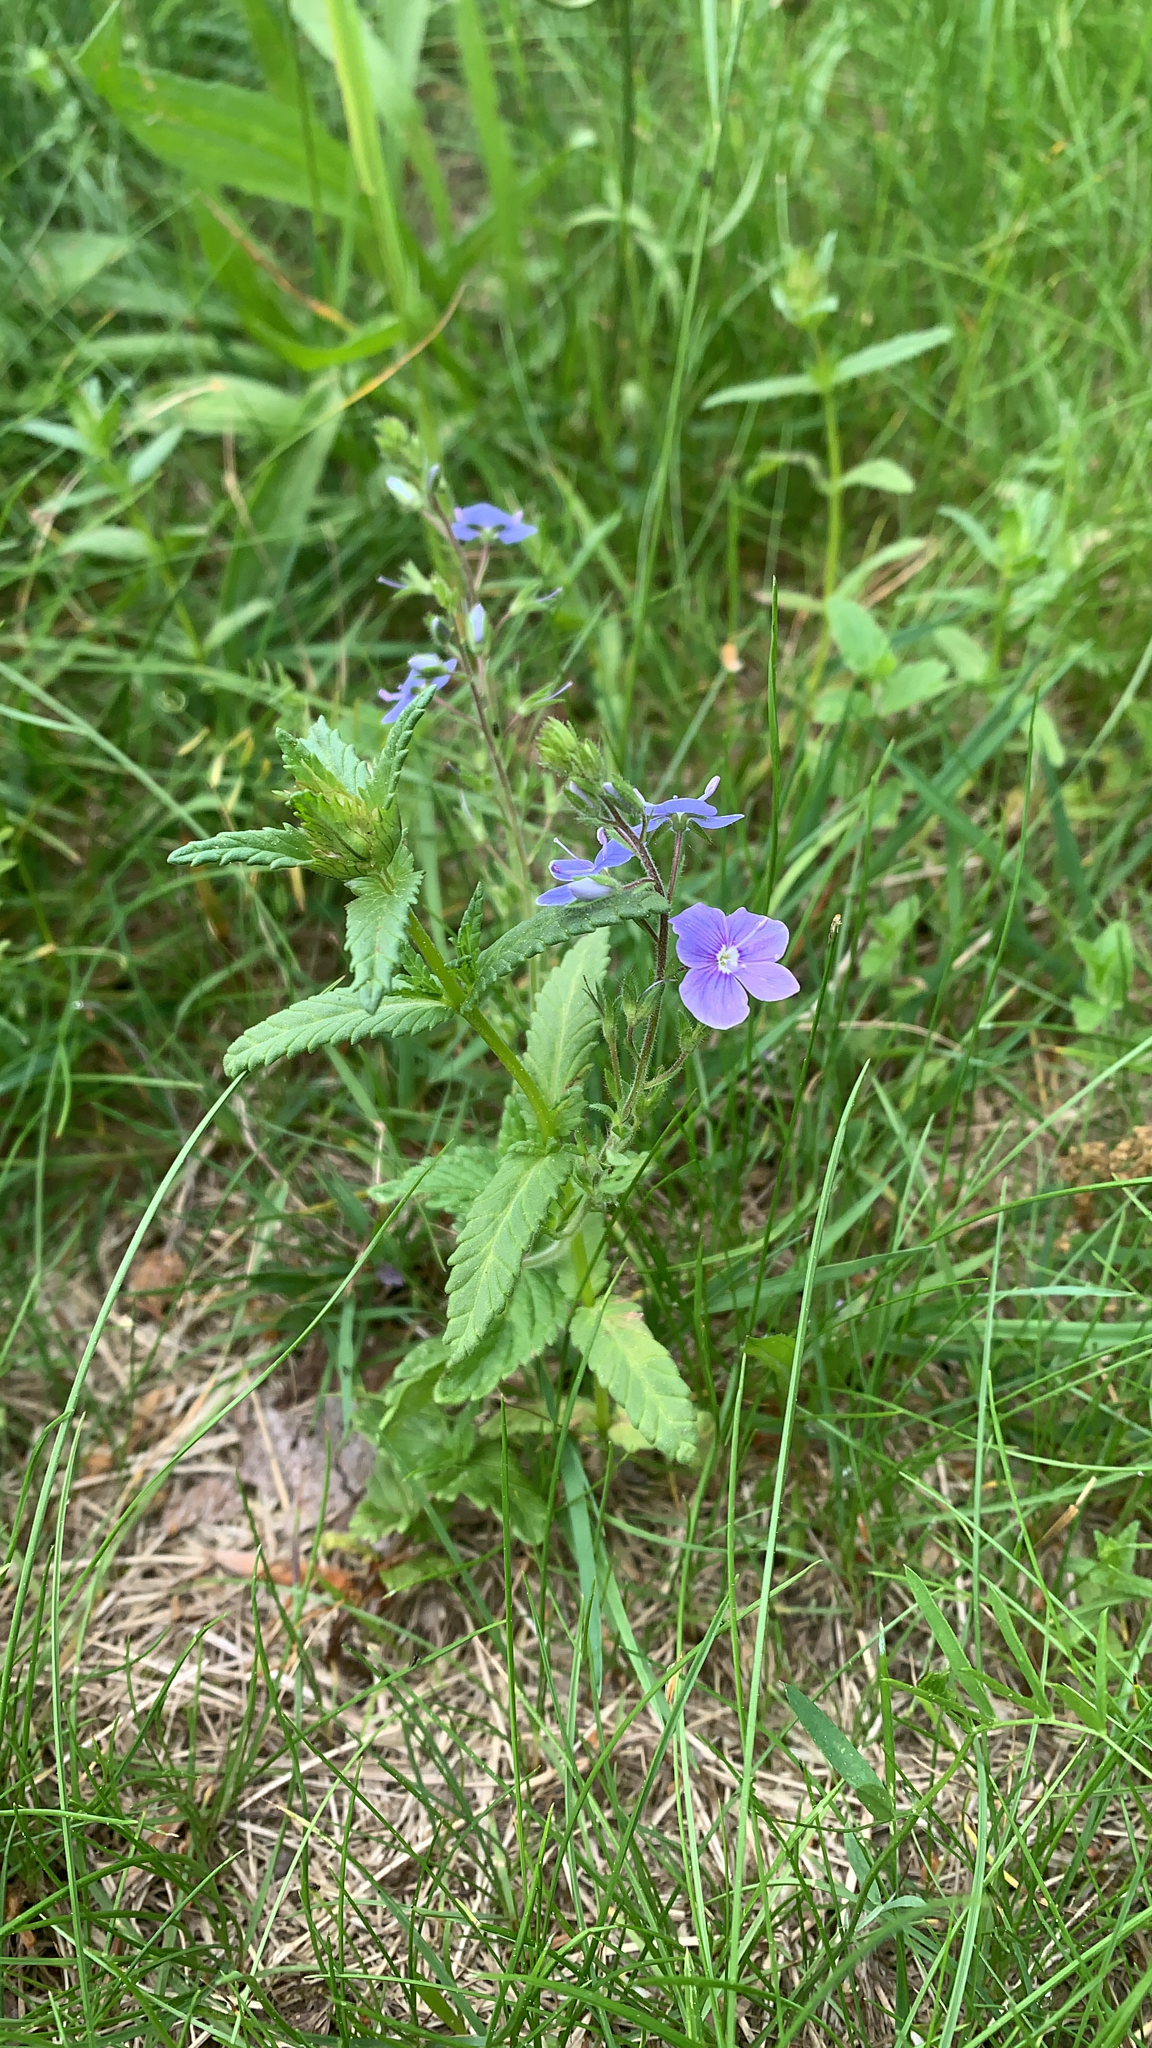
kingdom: Plantae
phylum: Tracheophyta
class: Magnoliopsida
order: Lamiales
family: Plantaginaceae
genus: Veronica
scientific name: Veronica chamaedrys
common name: Germander speedwell
